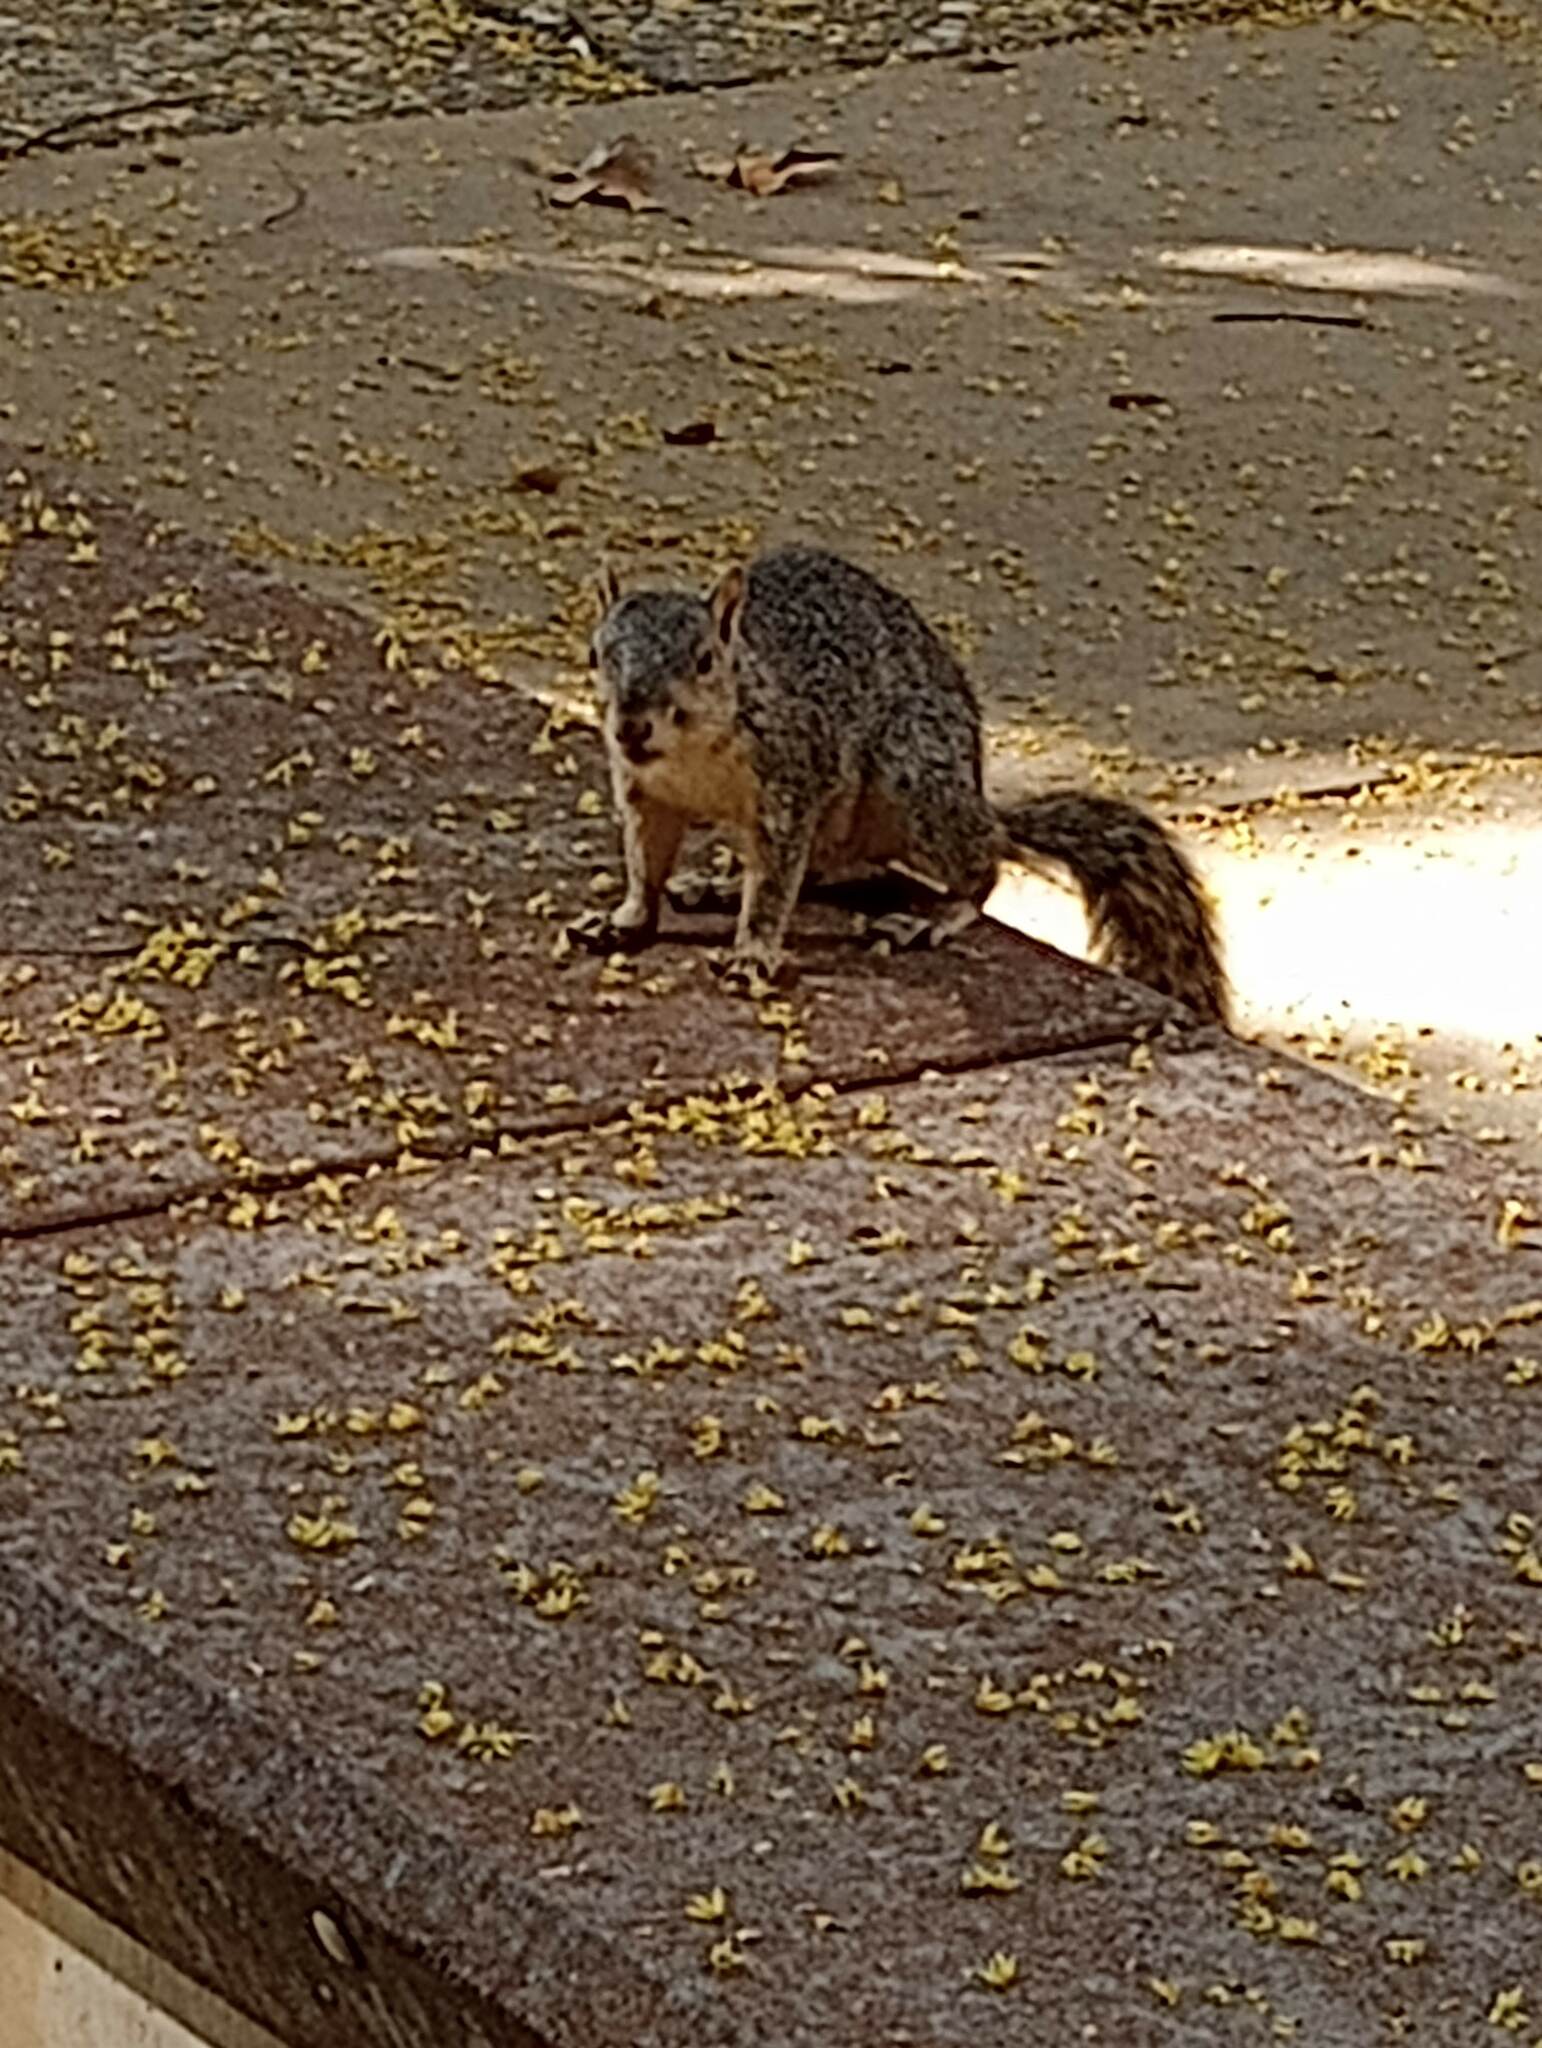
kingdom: Animalia
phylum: Chordata
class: Mammalia
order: Rodentia
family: Sciuridae
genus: Sciurus
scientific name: Sciurus niger
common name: Fox squirrel
